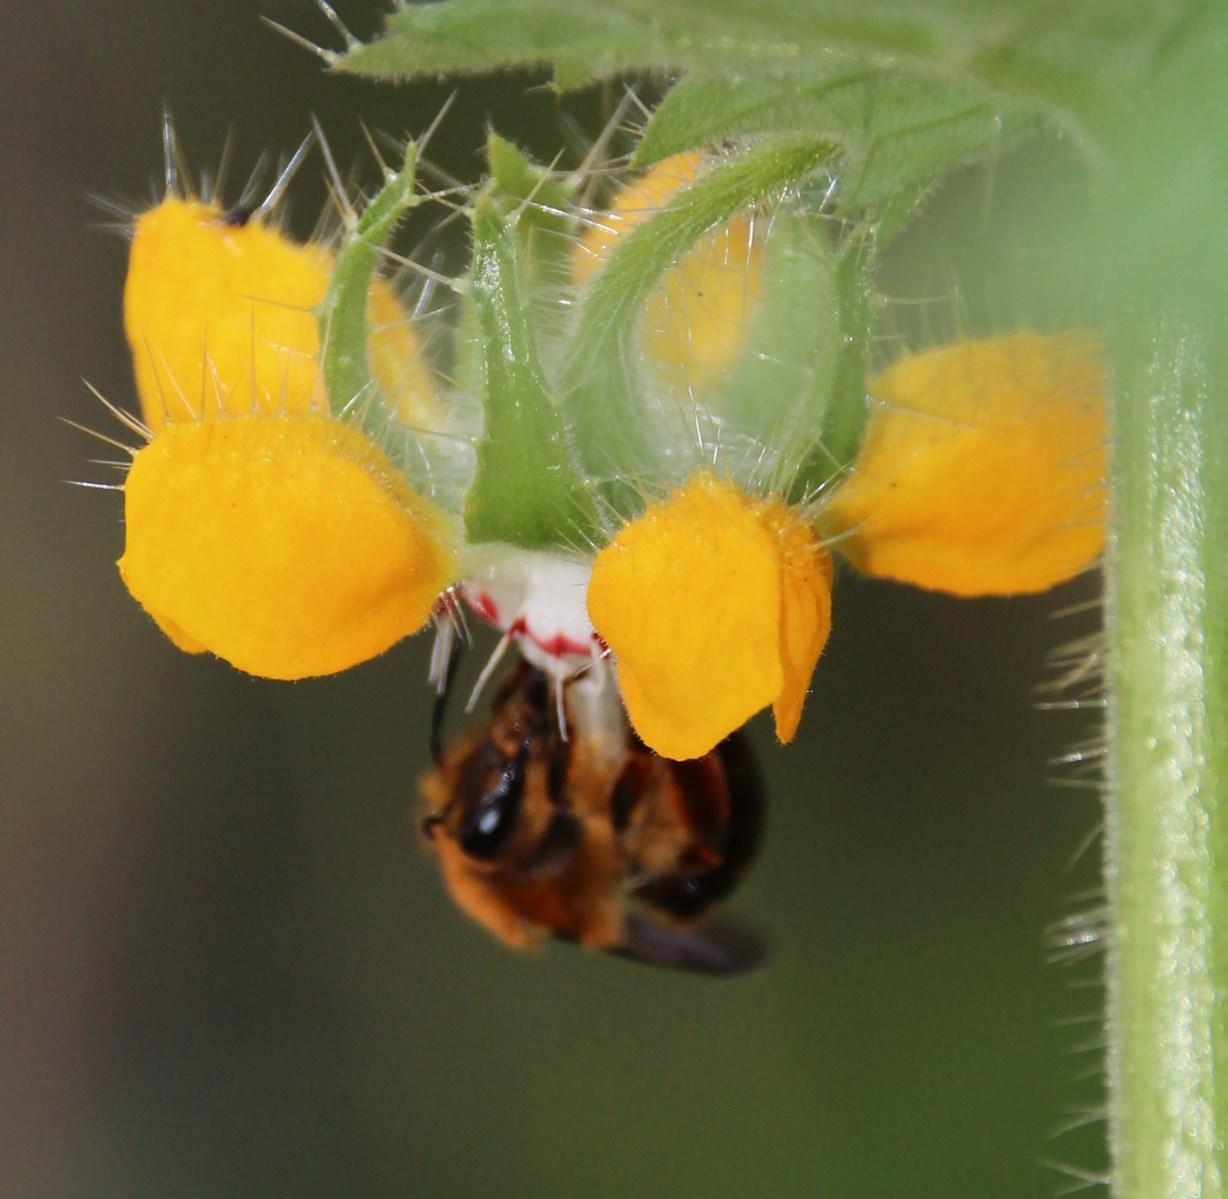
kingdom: Animalia
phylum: Arthropoda
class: Insecta
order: Hymenoptera
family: Colletidae
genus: Cadeguala
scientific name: Cadeguala occidentalis
